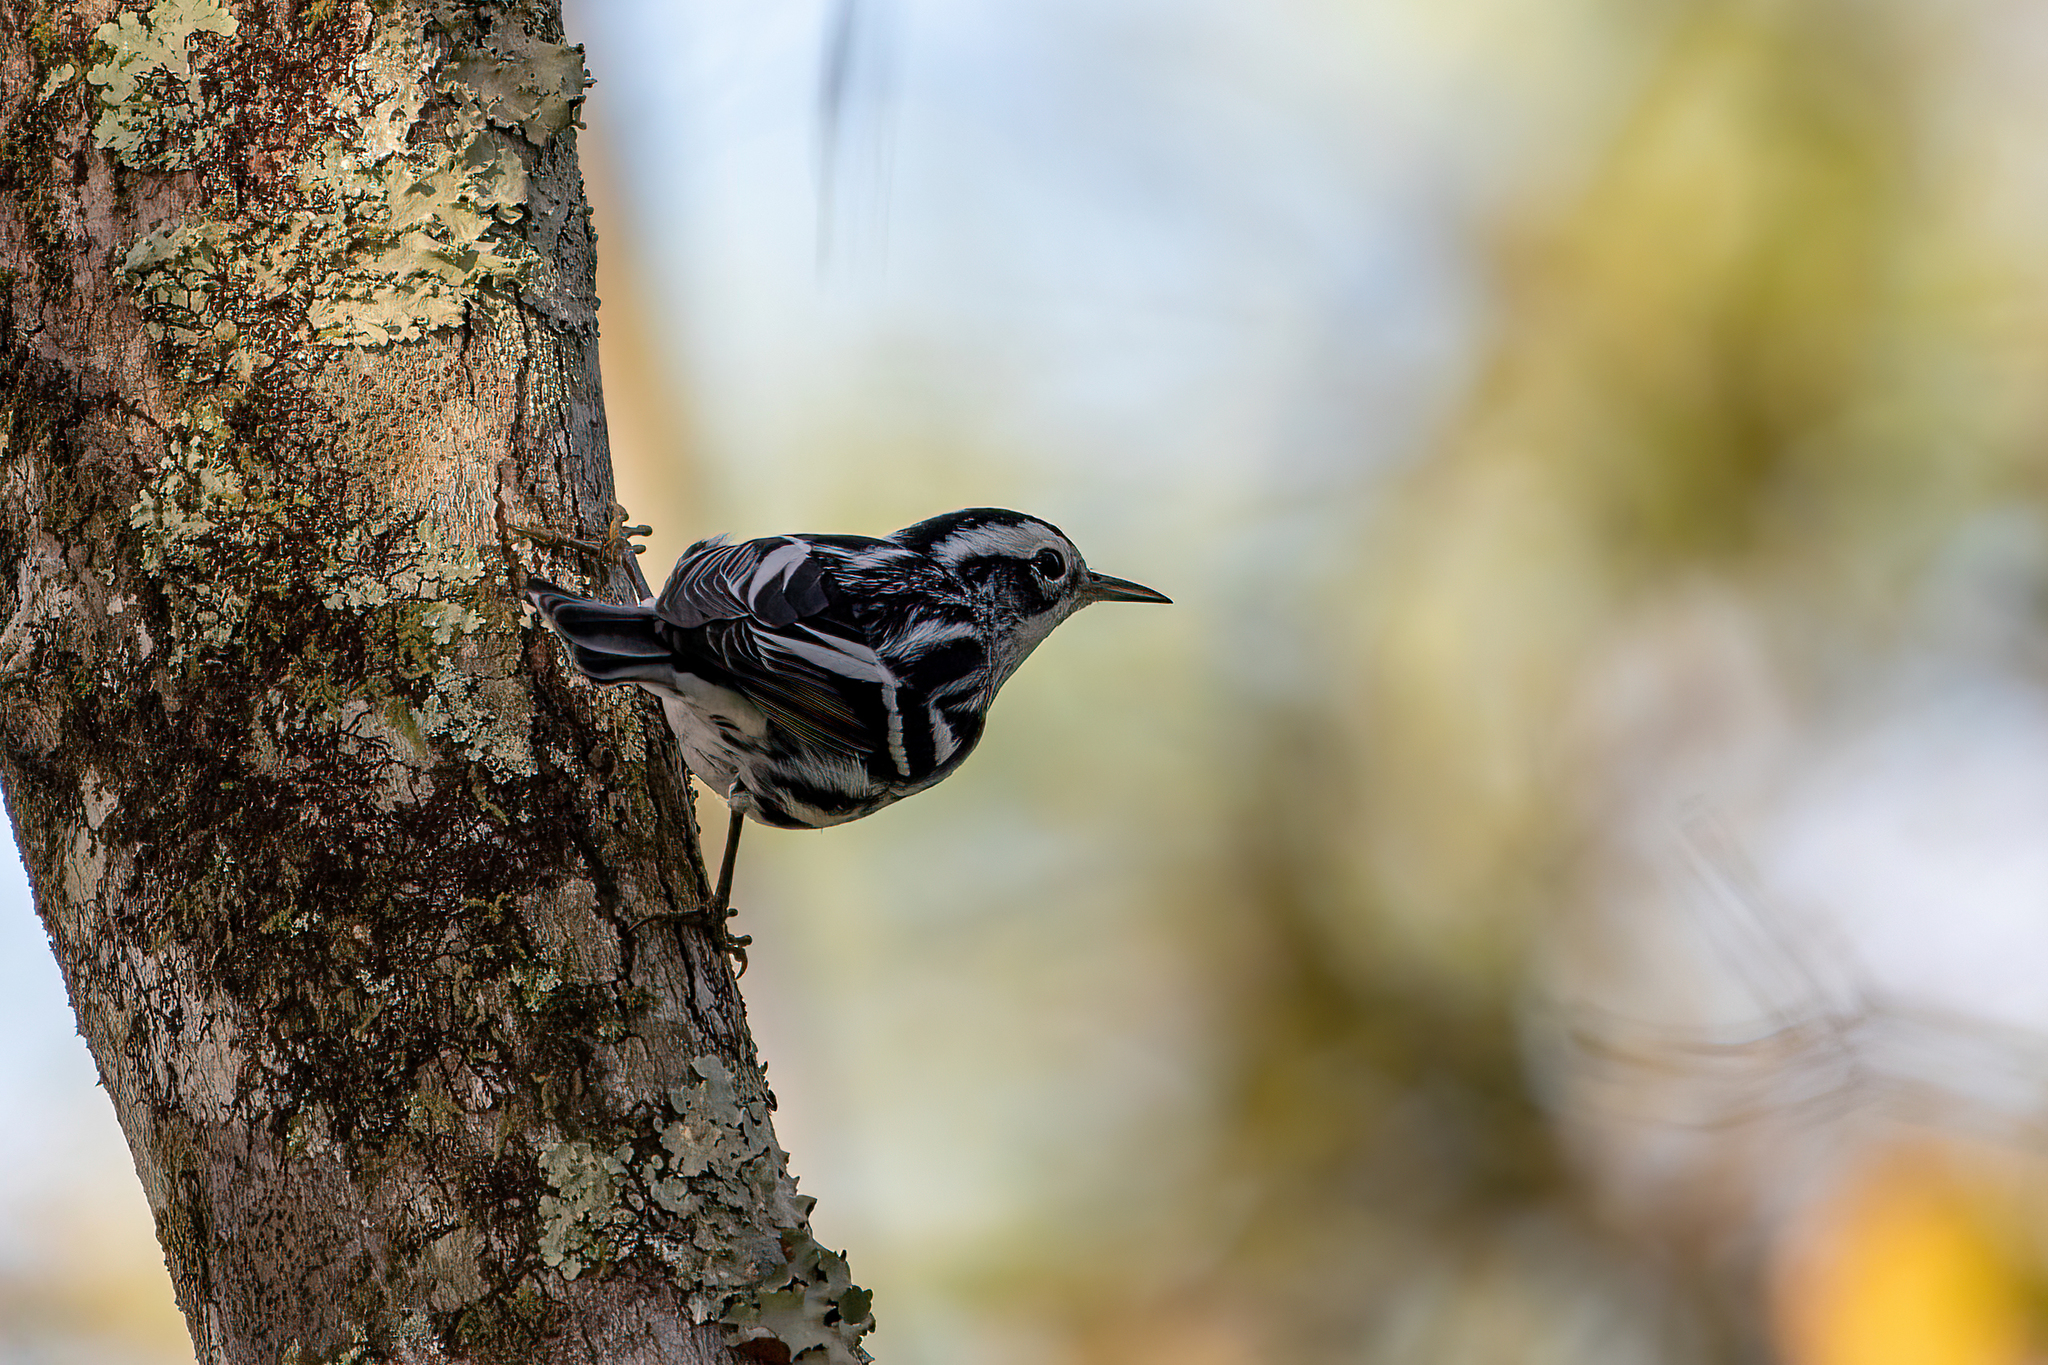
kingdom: Animalia
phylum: Chordata
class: Aves
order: Passeriformes
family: Parulidae
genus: Mniotilta
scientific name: Mniotilta varia
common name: Black-and-white warbler
